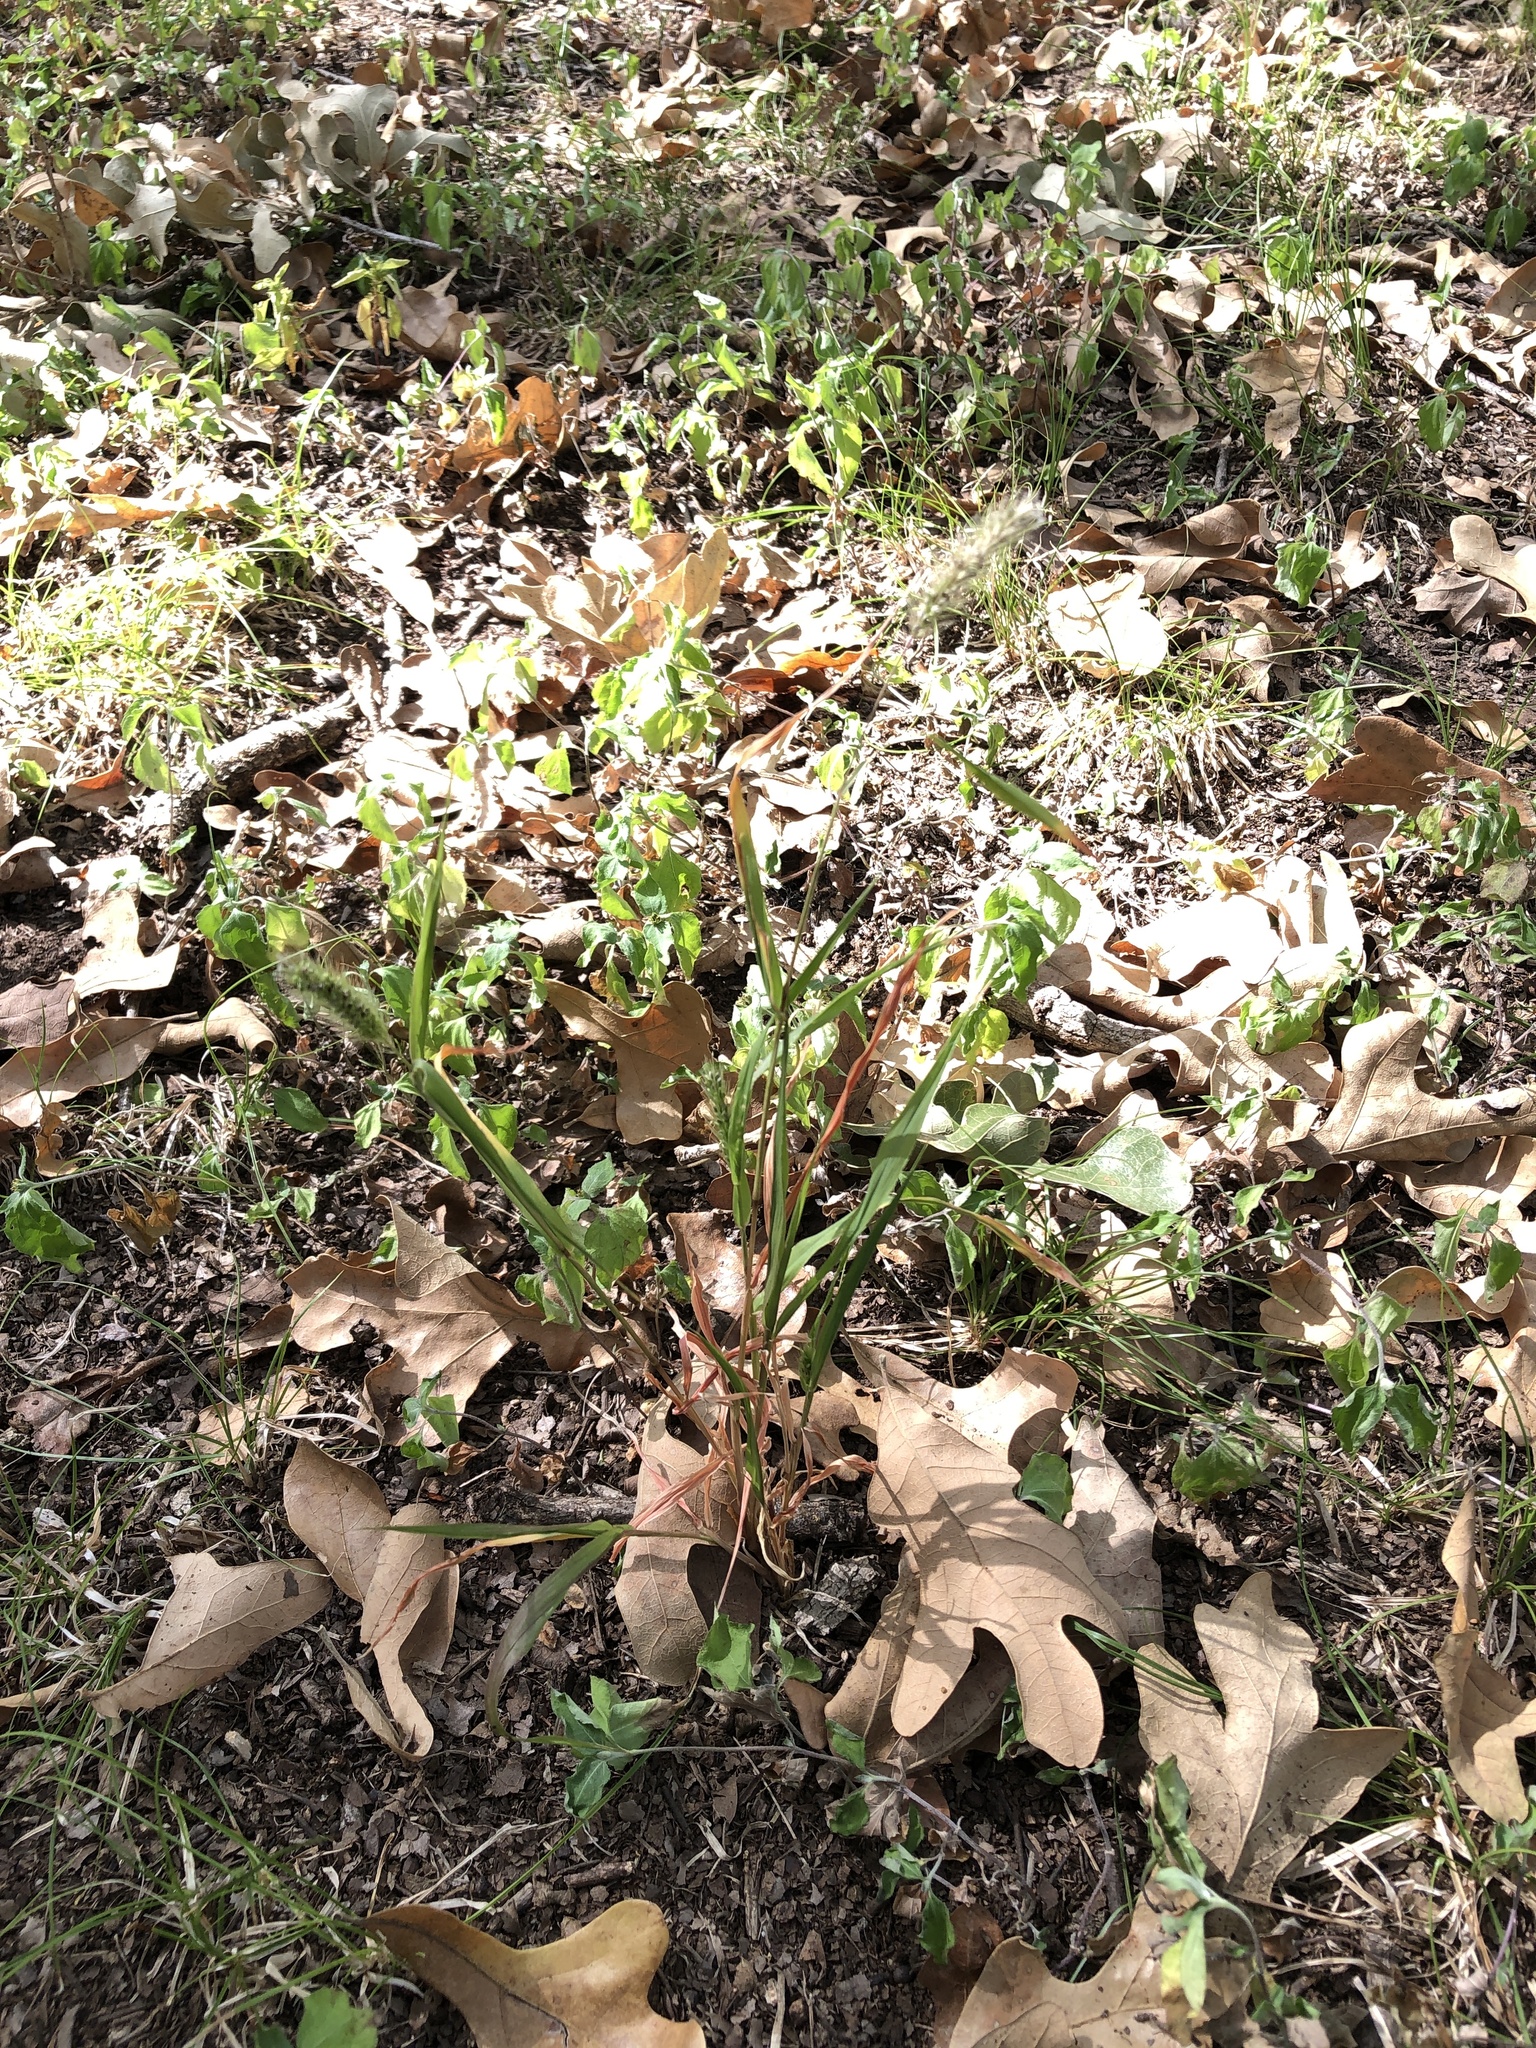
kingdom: Plantae
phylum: Tracheophyta
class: Liliopsida
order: Poales
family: Poaceae
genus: Setaria
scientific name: Setaria viridis
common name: Green bristlegrass
